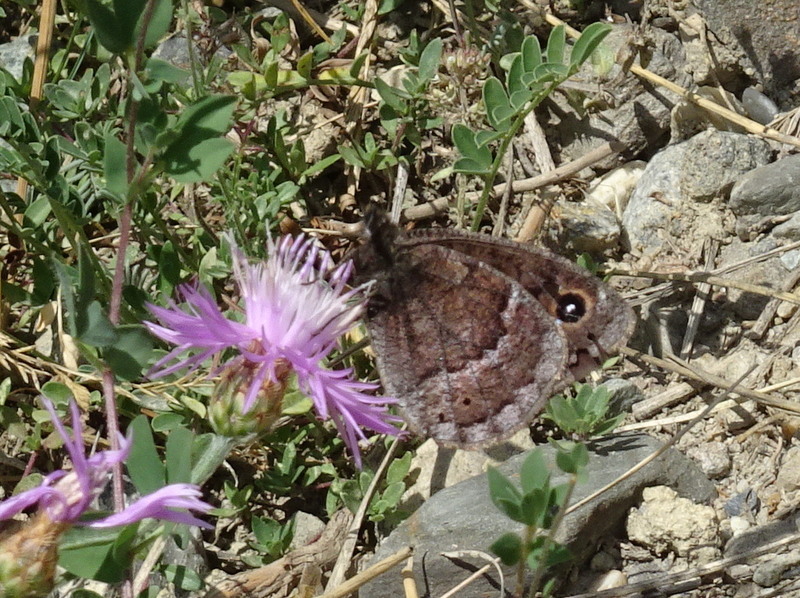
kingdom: Animalia
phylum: Arthropoda
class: Insecta
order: Lepidoptera
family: Nymphalidae
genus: Satyrus
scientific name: Satyrus ferula
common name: Great sooty satyr
